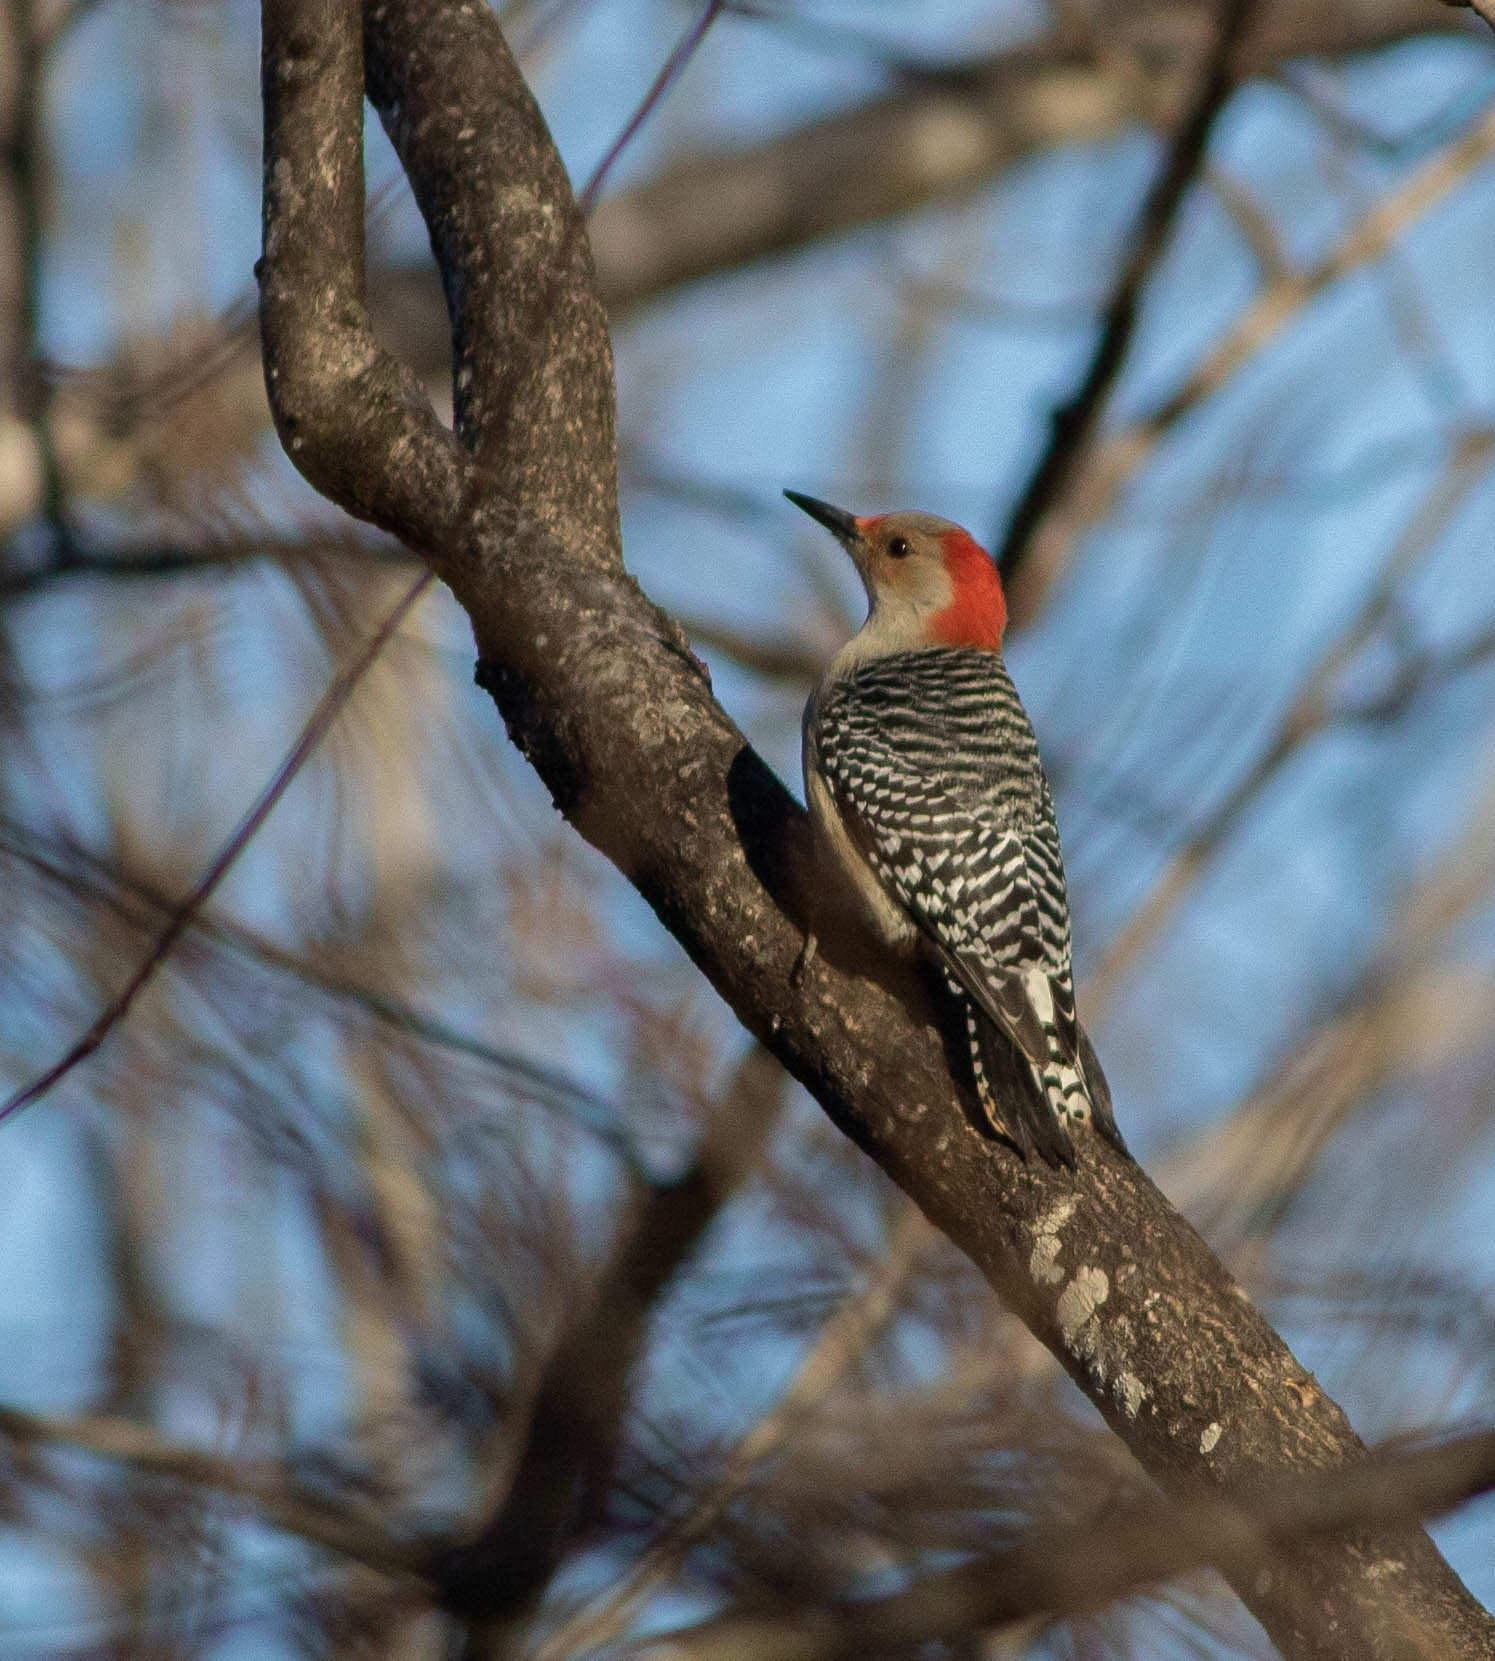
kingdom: Animalia
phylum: Chordata
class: Aves
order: Piciformes
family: Picidae
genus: Melanerpes
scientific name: Melanerpes carolinus
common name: Red-bellied woodpecker
